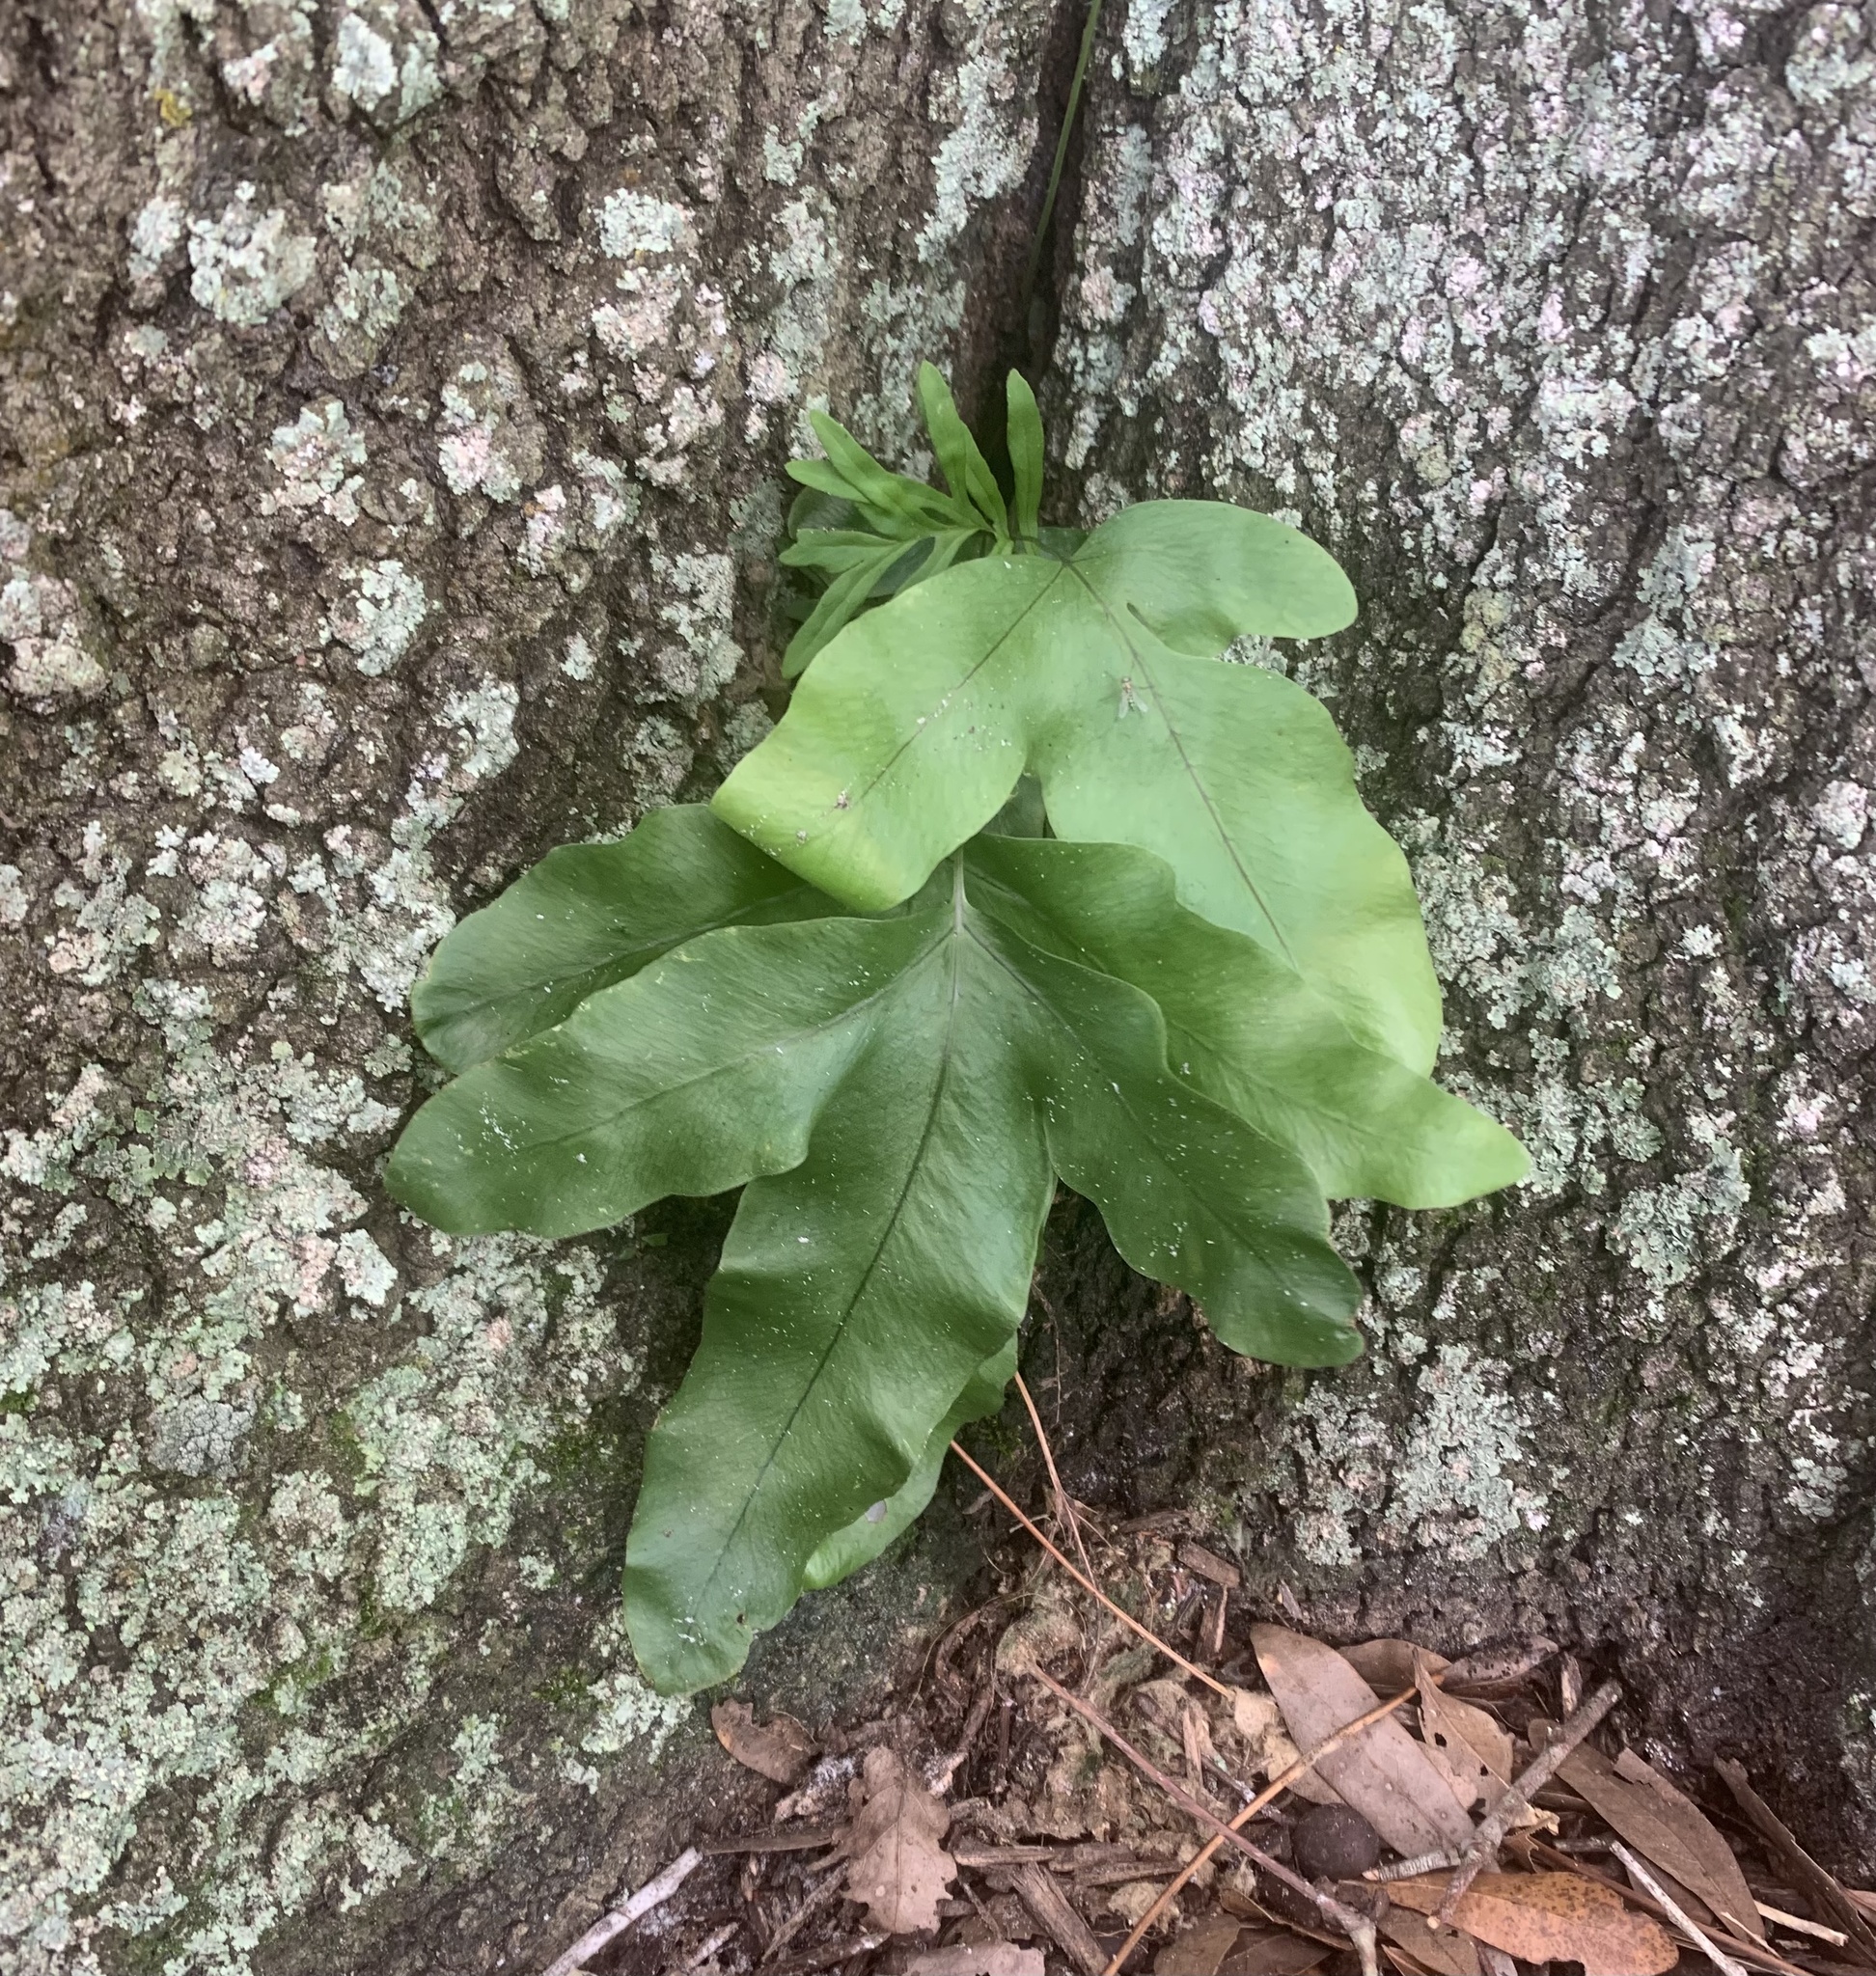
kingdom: Plantae
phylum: Tracheophyta
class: Polypodiopsida
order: Polypodiales
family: Polypodiaceae
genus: Phlebodium
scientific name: Phlebodium aureum
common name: Gold-foot fern
